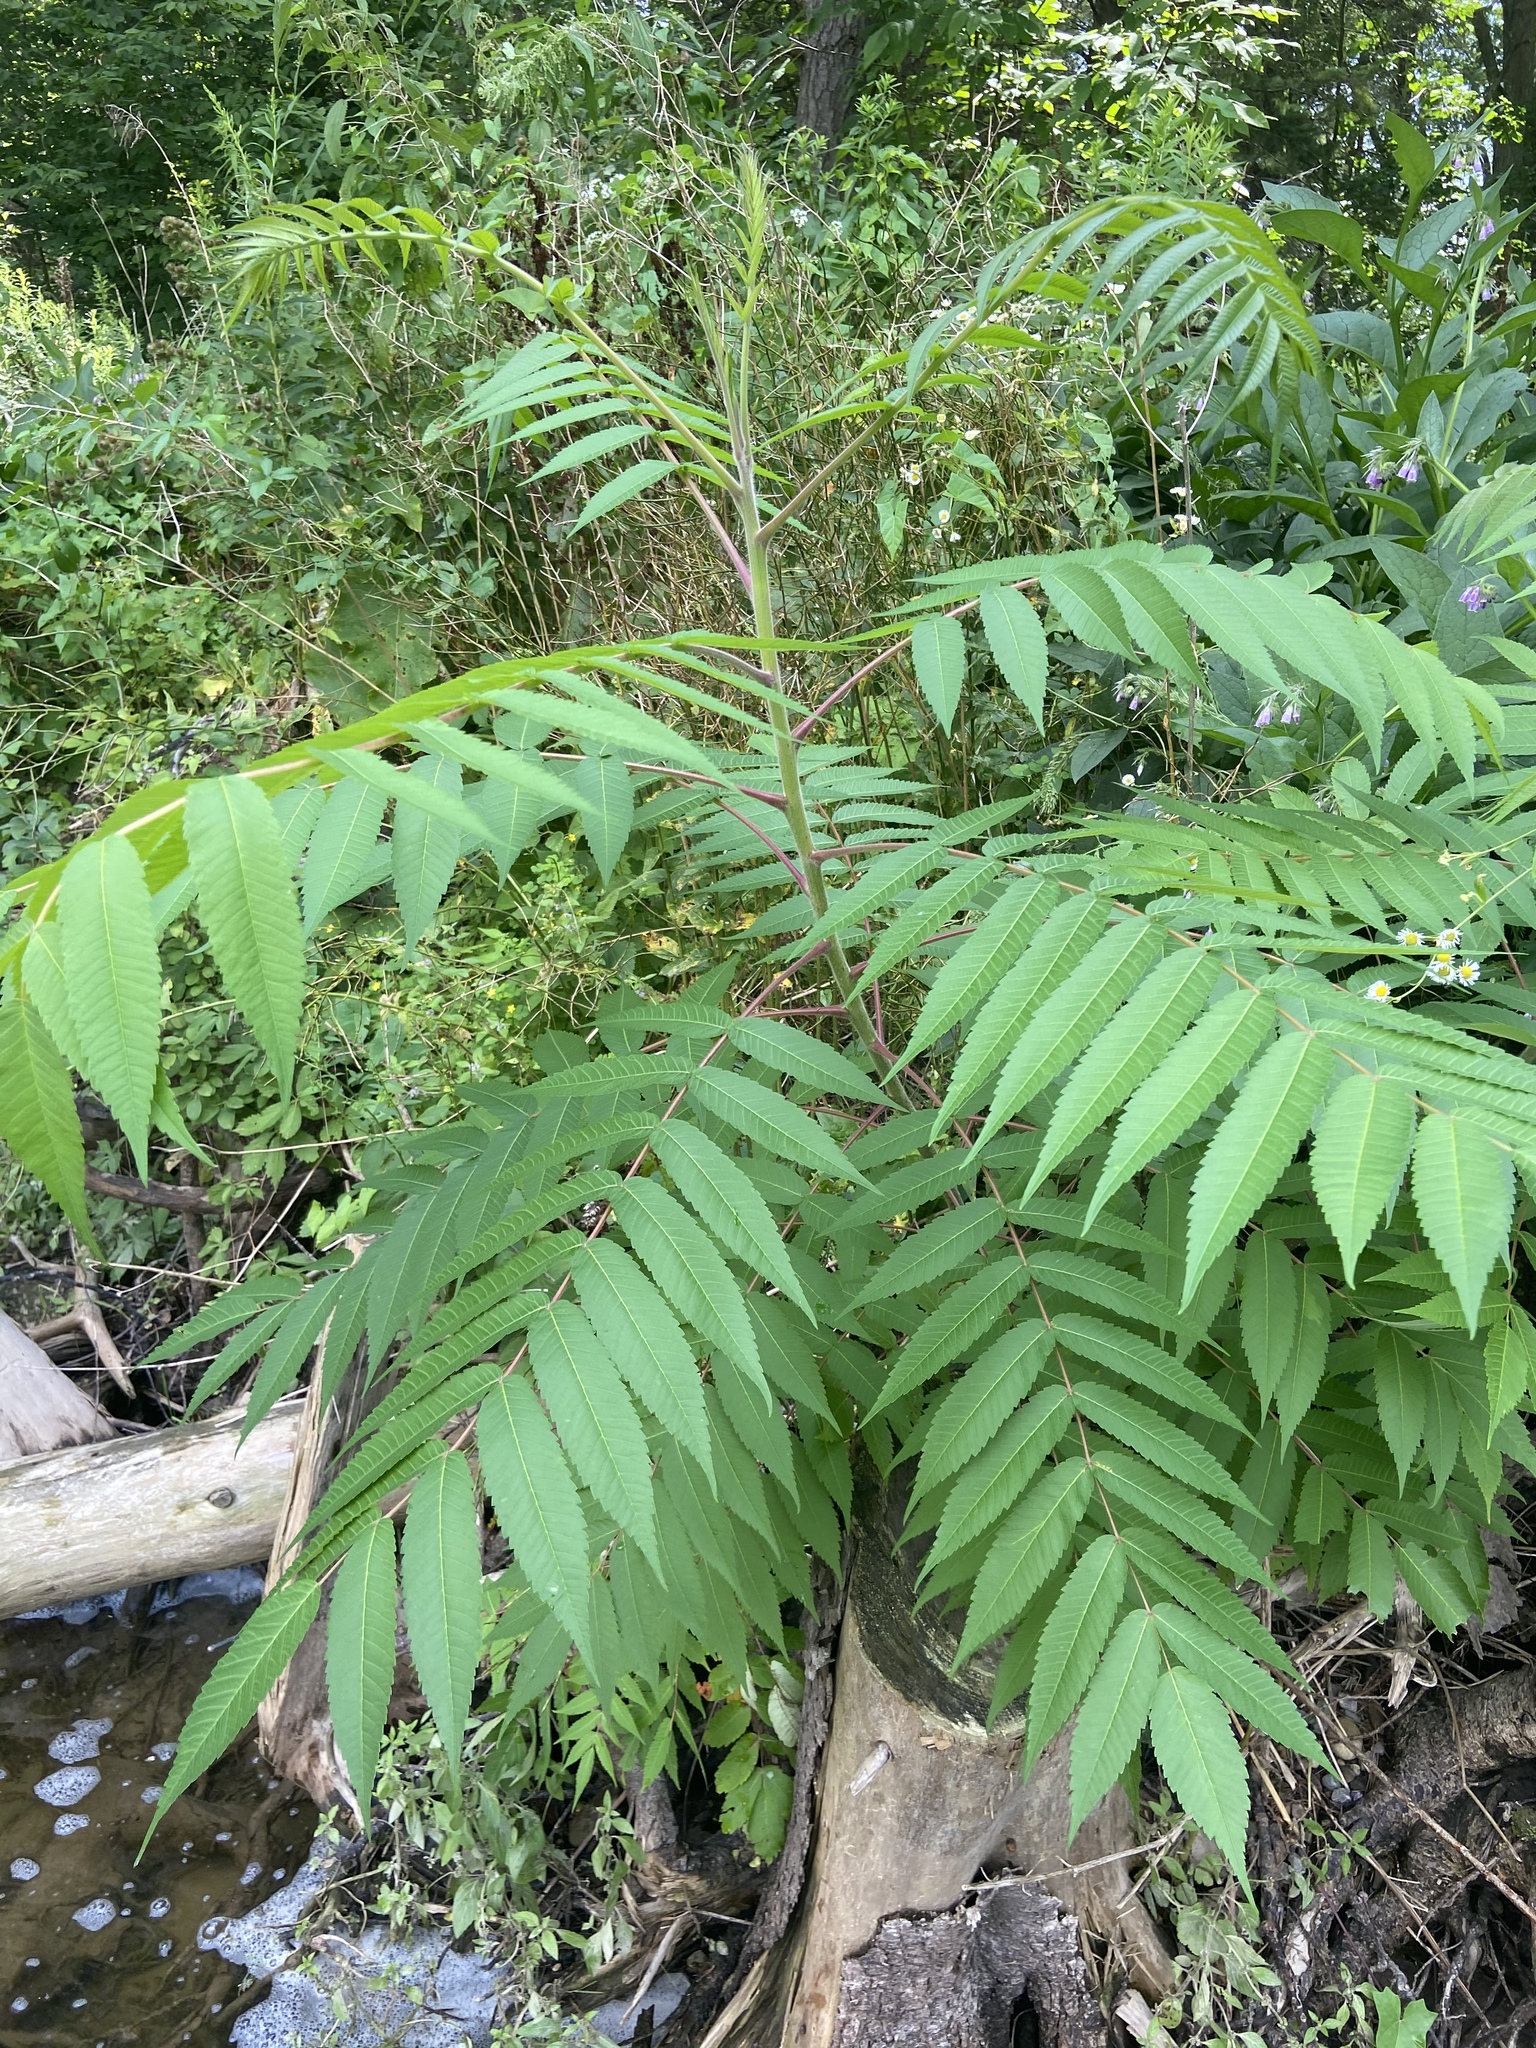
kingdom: Plantae
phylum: Tracheophyta
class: Magnoliopsida
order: Sapindales
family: Anacardiaceae
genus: Rhus
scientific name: Rhus typhina
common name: Staghorn sumac
